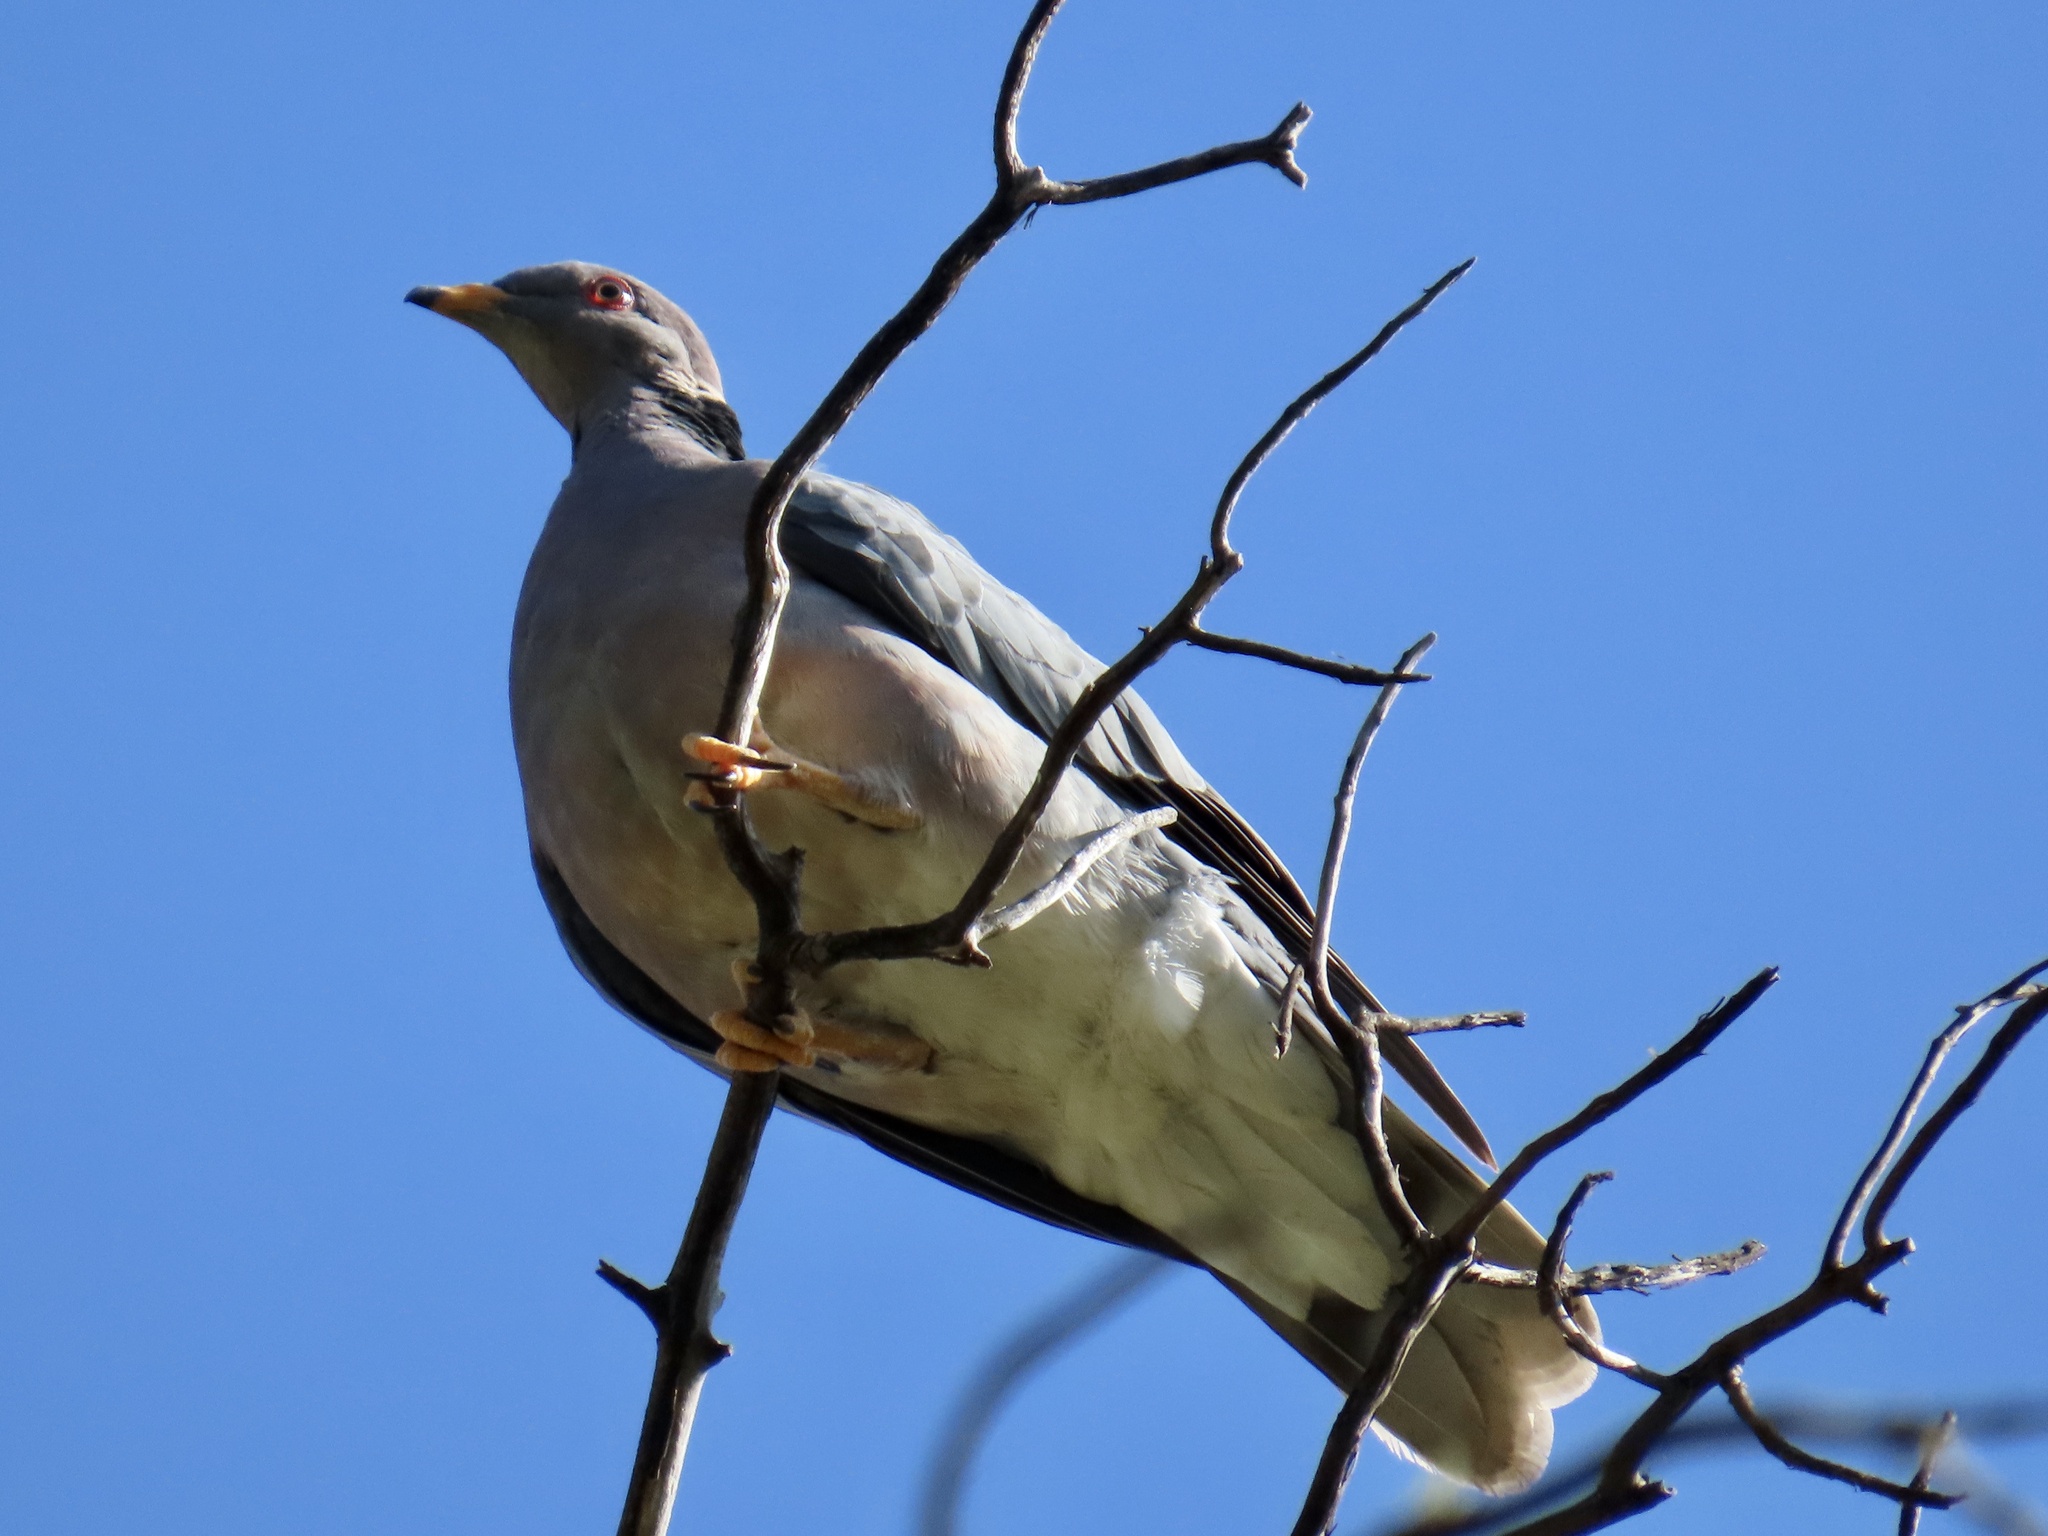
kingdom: Animalia
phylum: Chordata
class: Aves
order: Columbiformes
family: Columbidae
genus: Patagioenas
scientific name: Patagioenas fasciata
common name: Band-tailed pigeon
